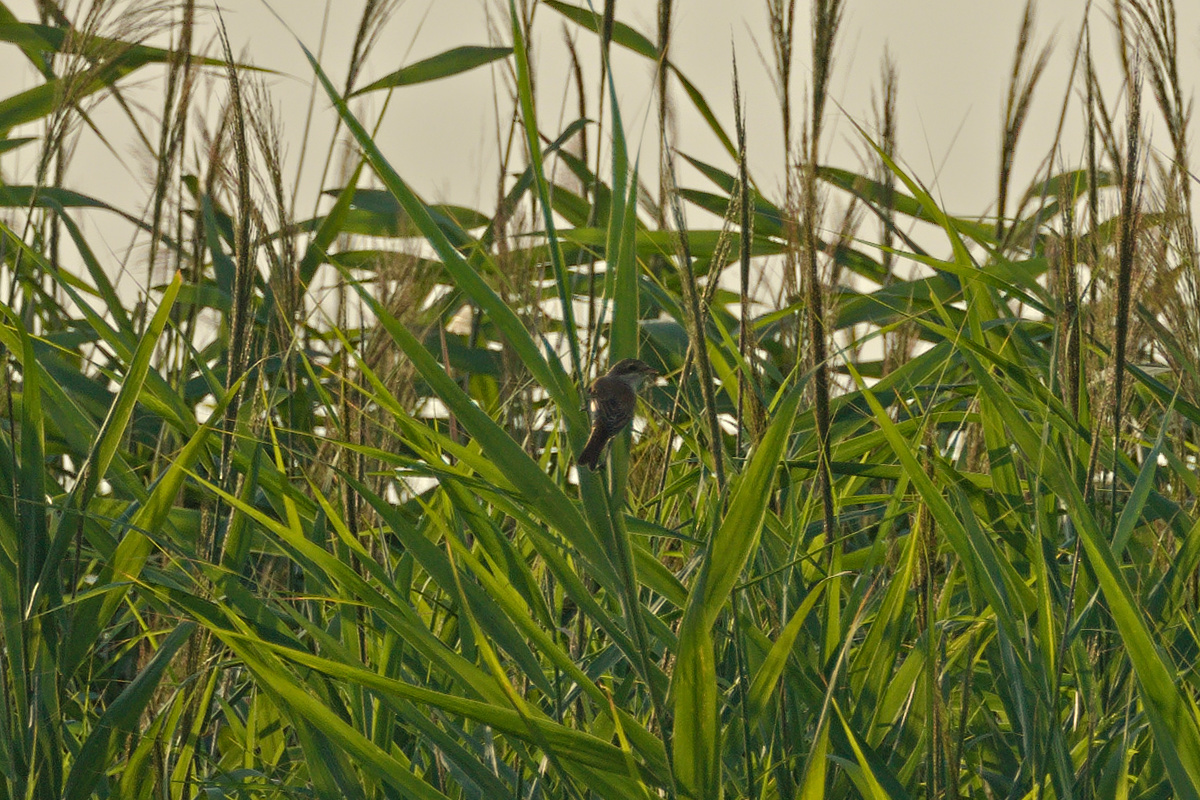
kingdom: Animalia
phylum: Chordata
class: Aves
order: Passeriformes
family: Laniidae
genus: Lanius
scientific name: Lanius collurio
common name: Red-backed shrike
